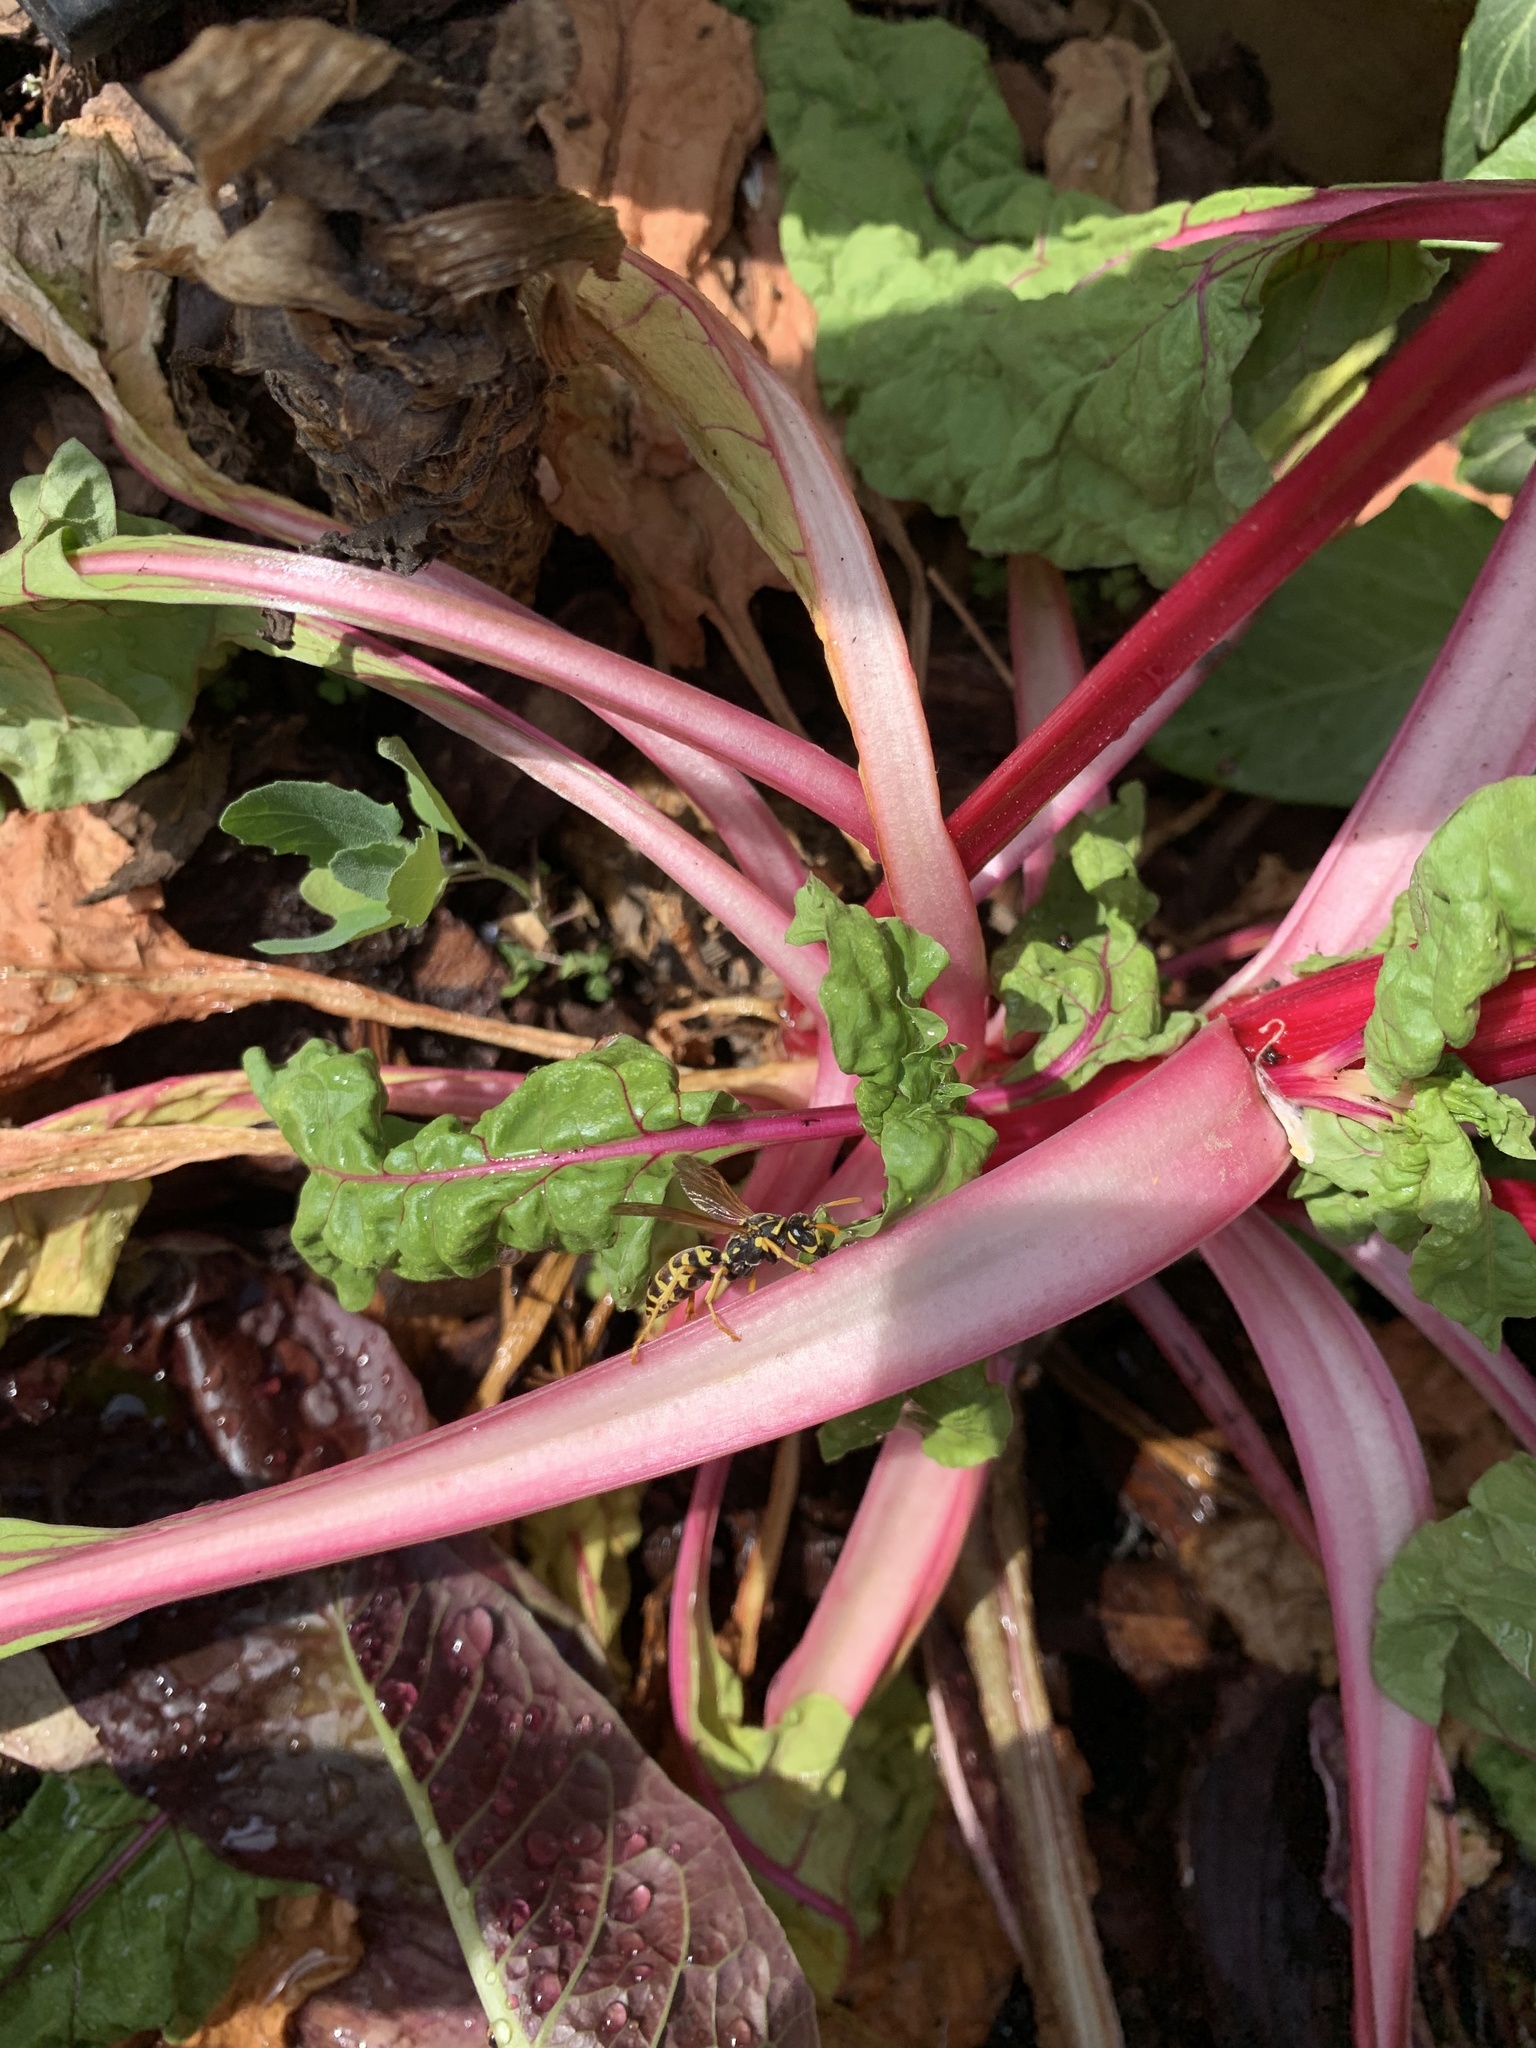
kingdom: Animalia
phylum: Arthropoda
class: Insecta
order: Hymenoptera
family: Eumenidae
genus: Polistes
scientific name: Polistes dominula
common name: Paper wasp
